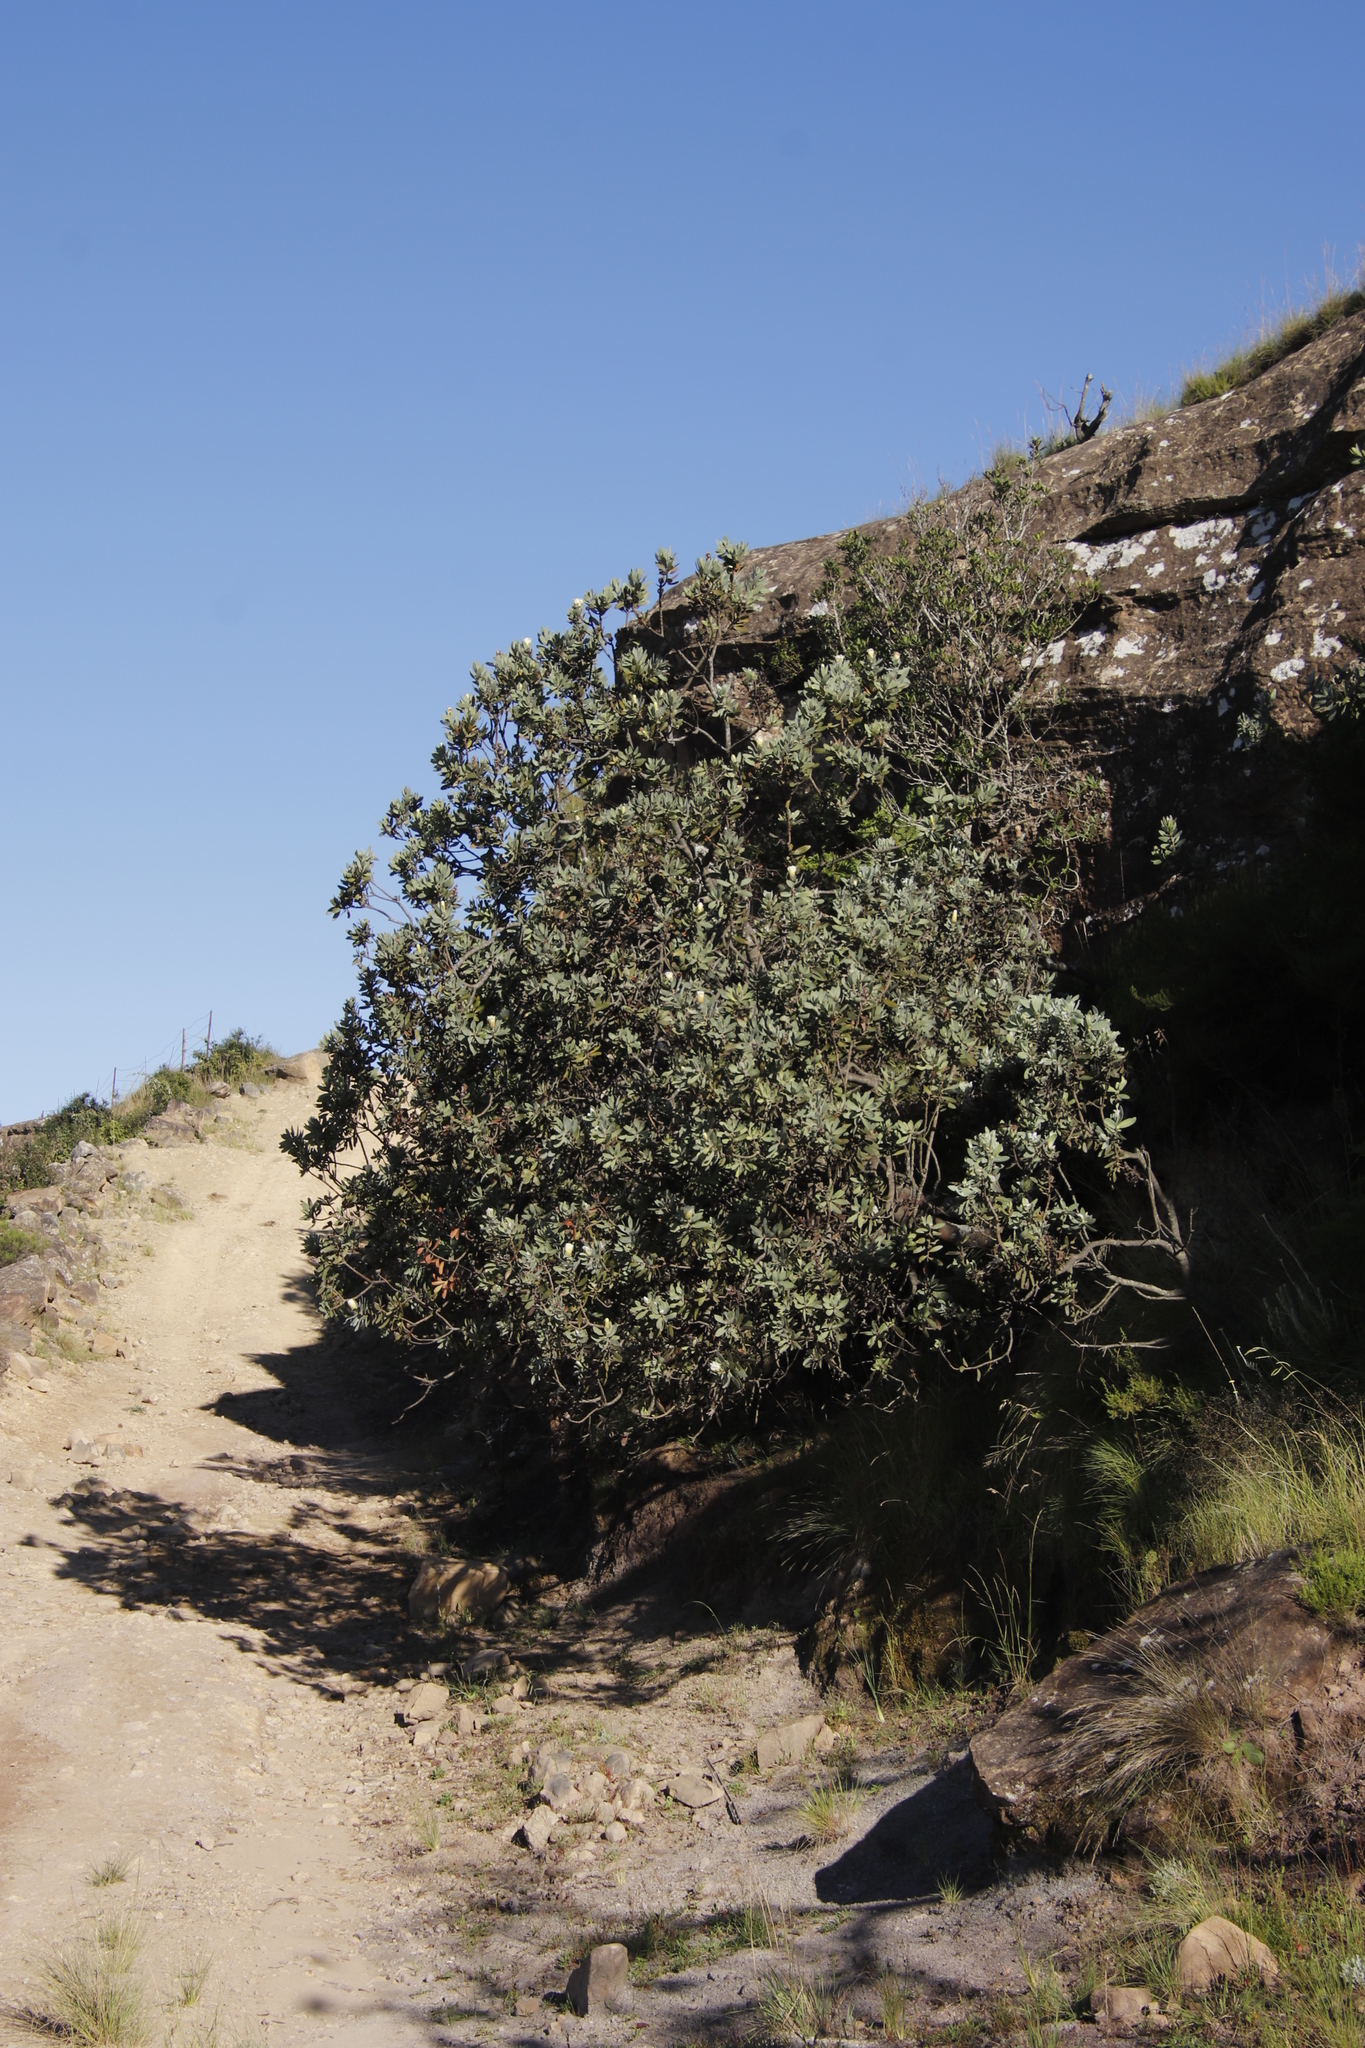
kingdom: Plantae
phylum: Tracheophyta
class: Magnoliopsida
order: Proteales
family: Proteaceae
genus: Protea
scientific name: Protea subvestita
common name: Lip-flower sugarbush
